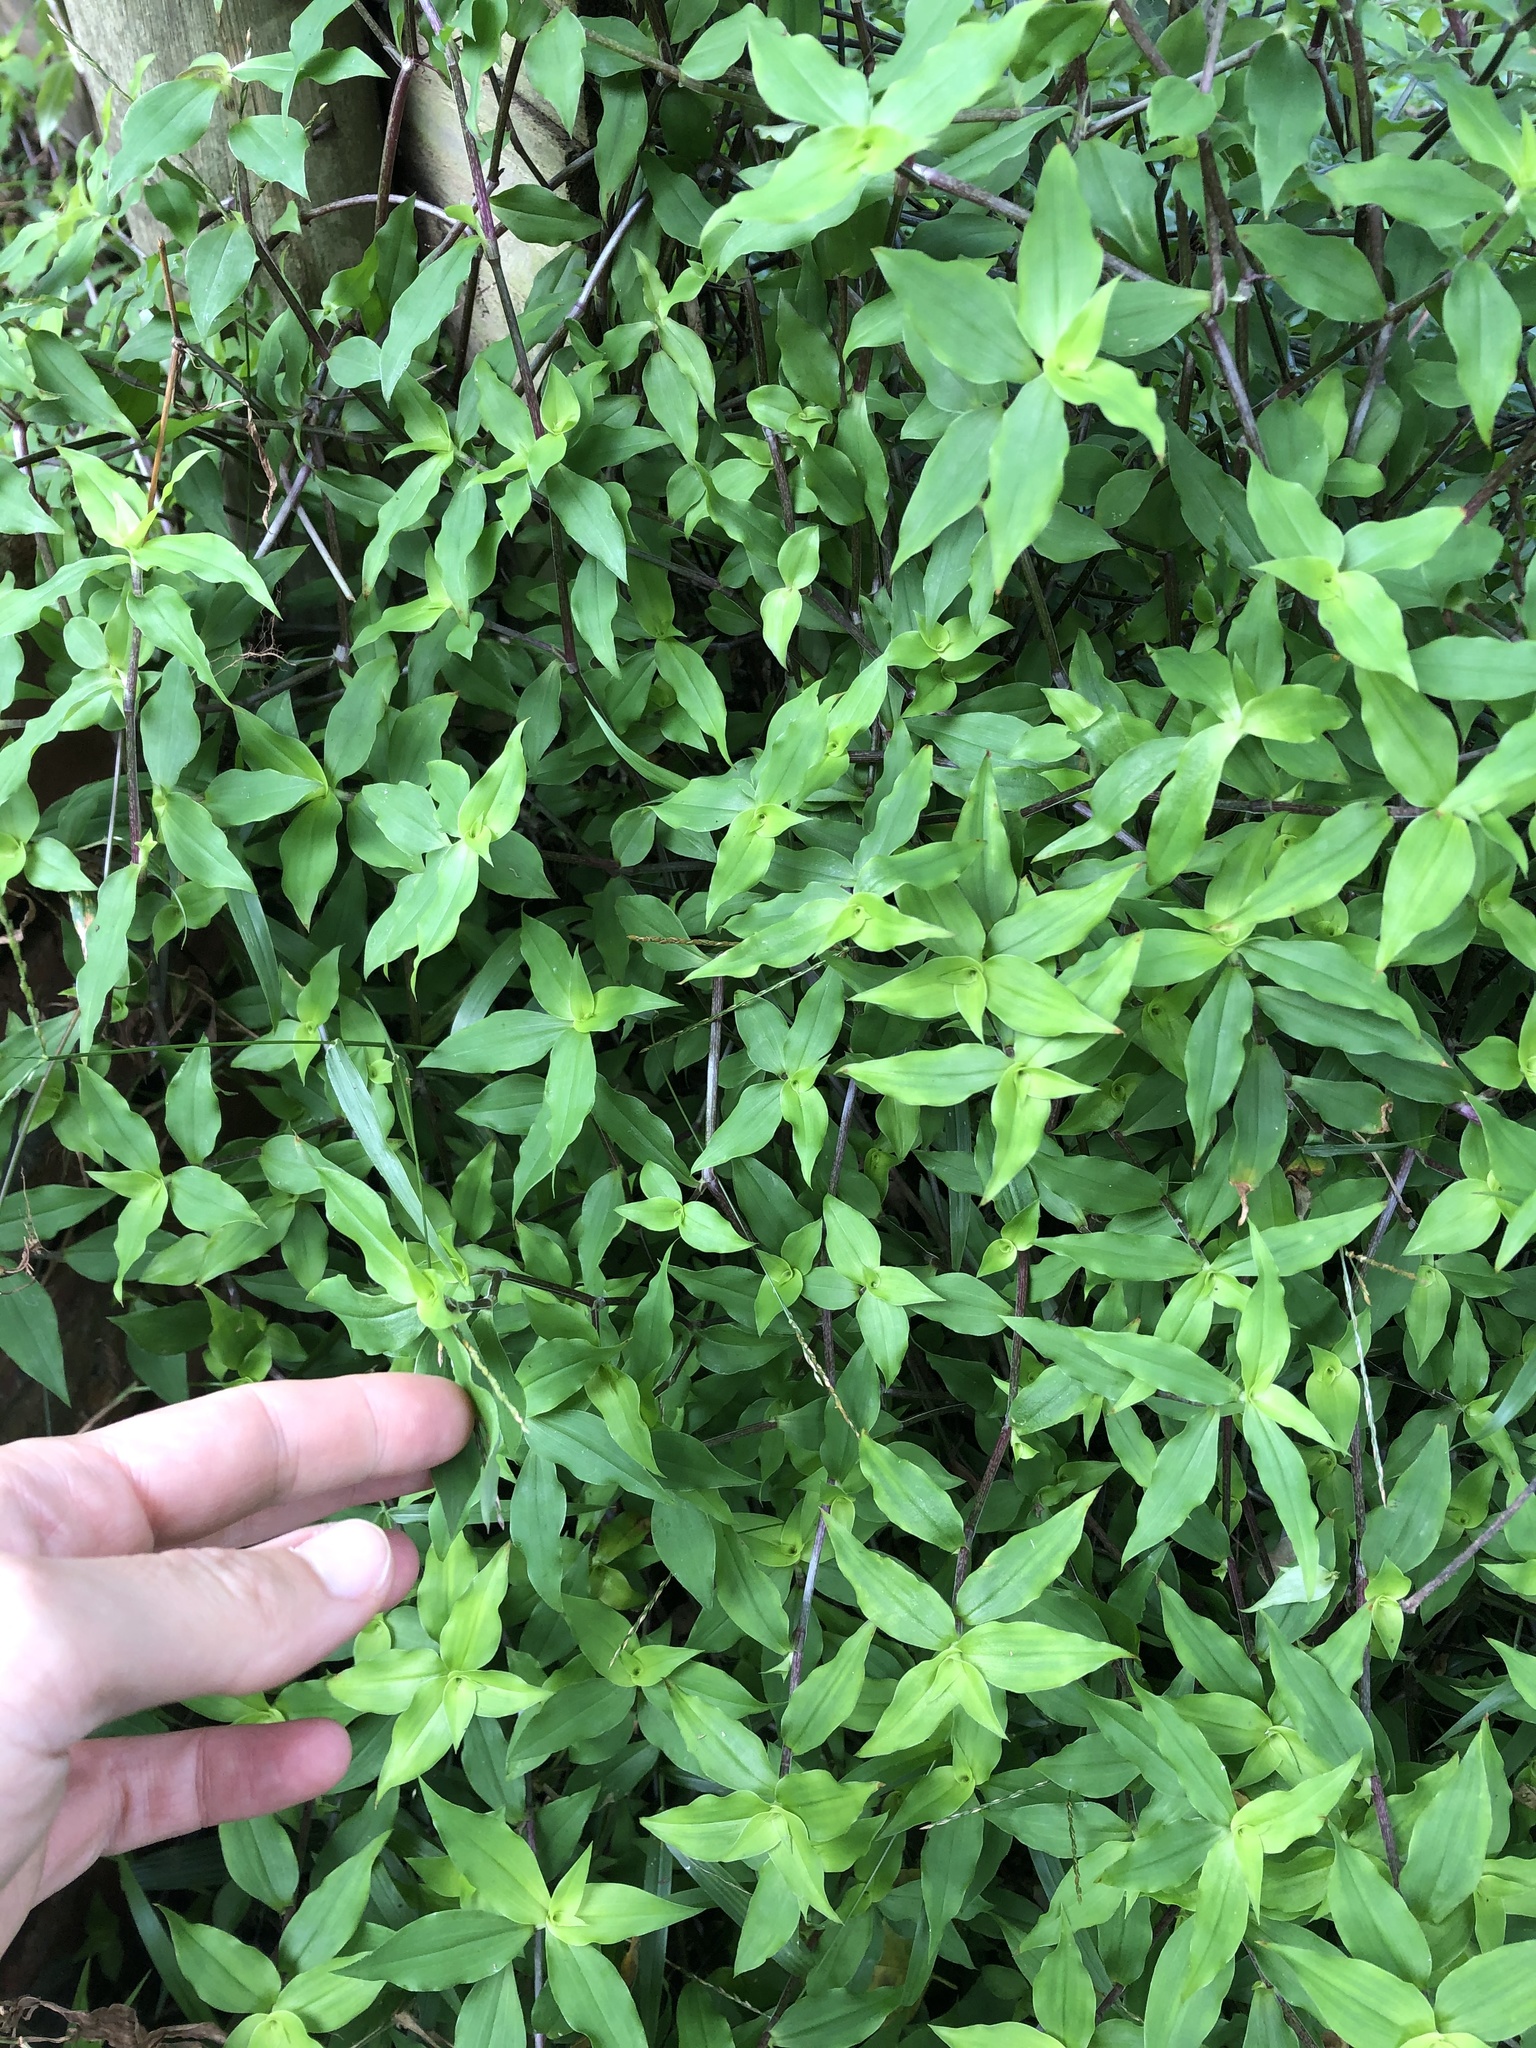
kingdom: Plantae
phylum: Tracheophyta
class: Liliopsida
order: Commelinales
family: Commelinaceae
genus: Tradescantia
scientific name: Tradescantia fluminensis
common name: Wandering-jew
